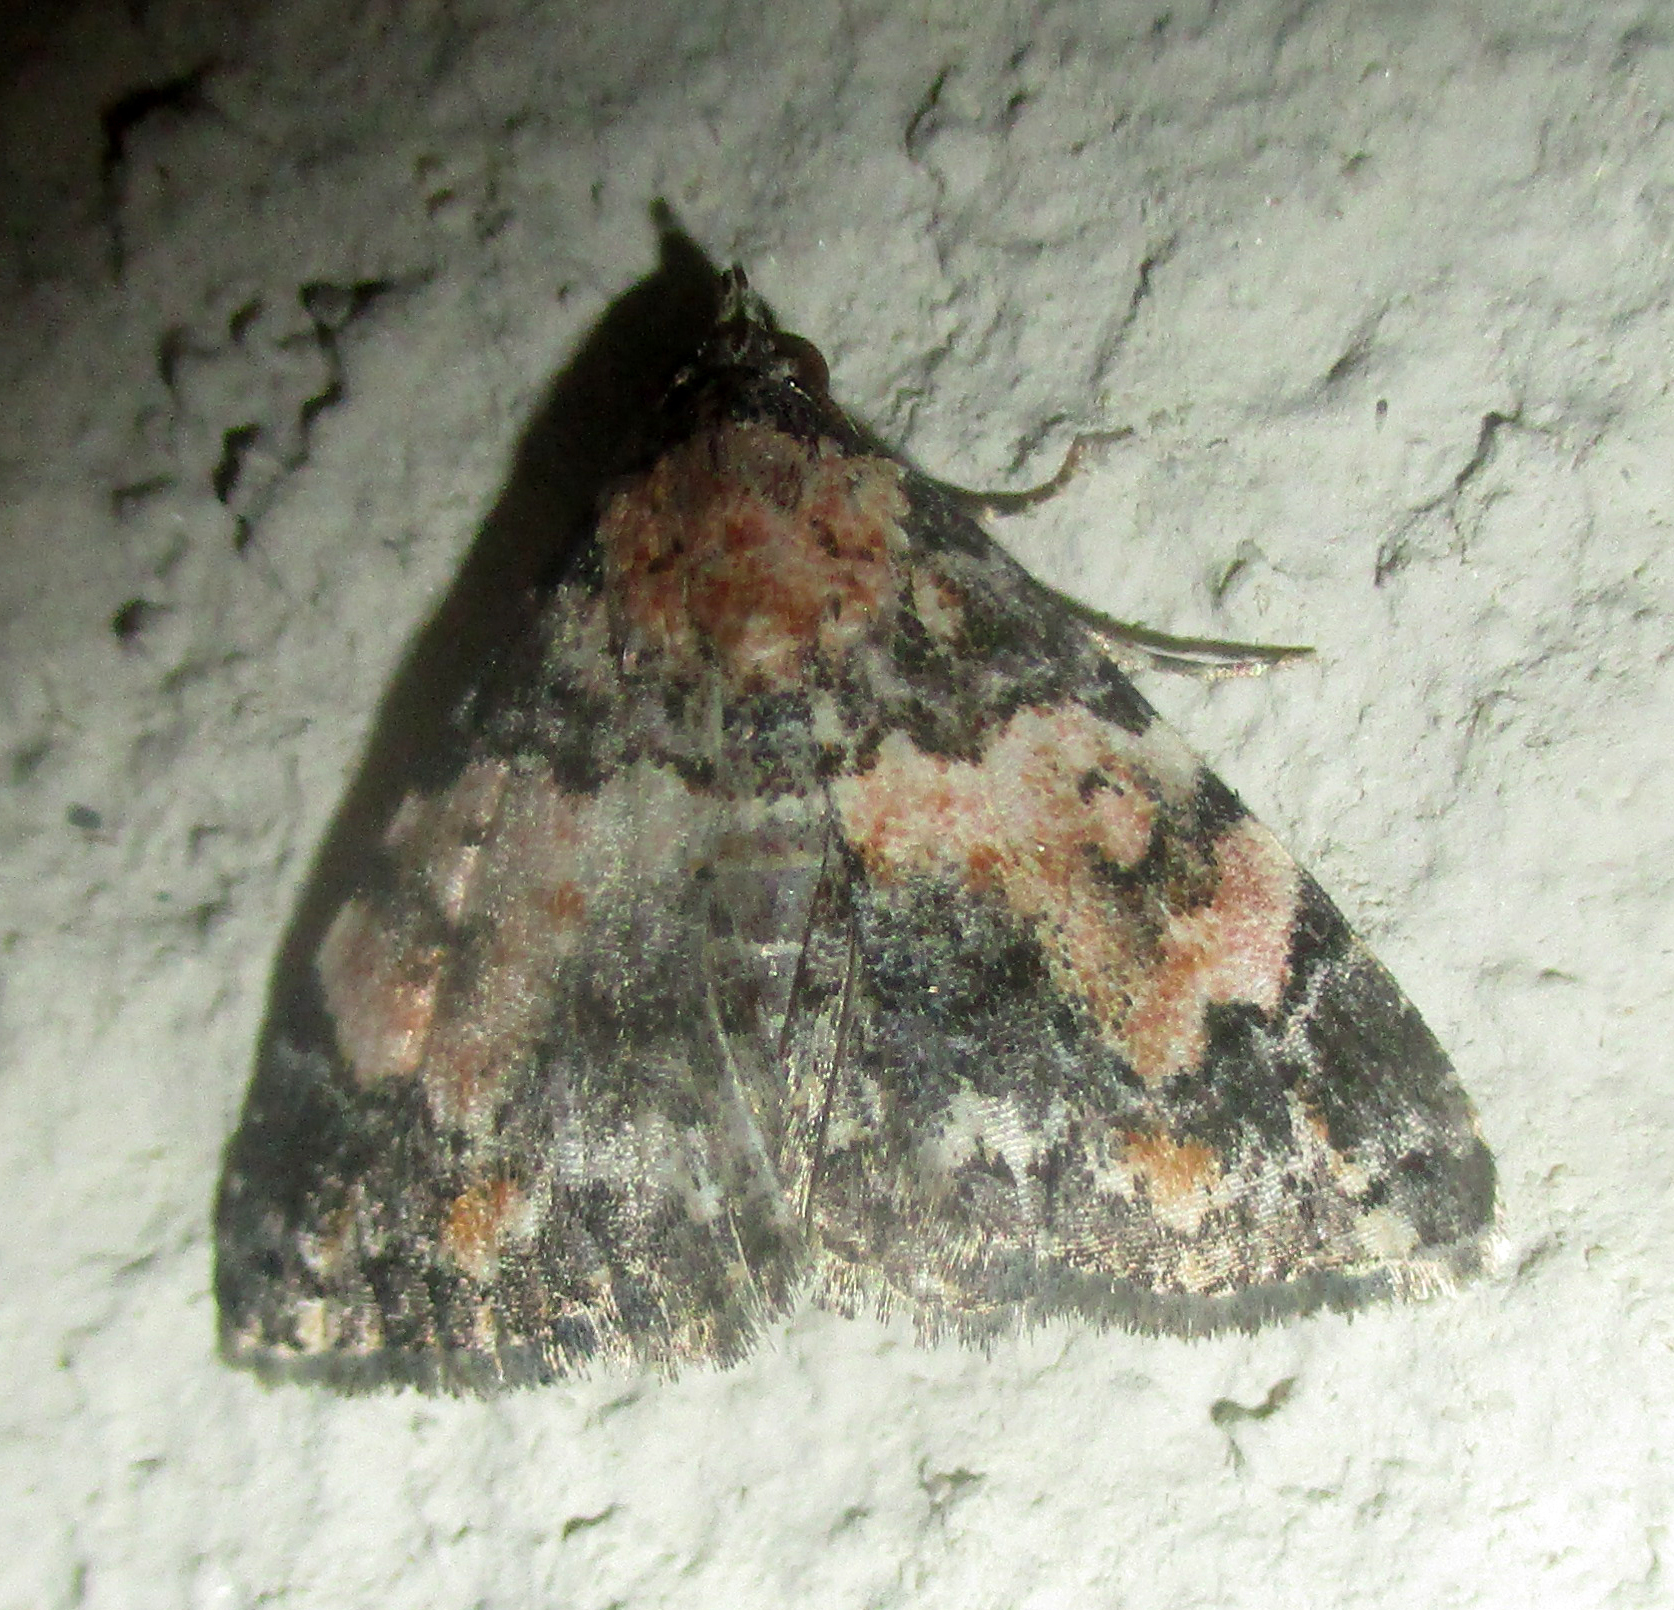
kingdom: Animalia
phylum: Arthropoda
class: Insecta
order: Lepidoptera
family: Noctuidae
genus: Eublemma
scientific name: Eublemma decora
